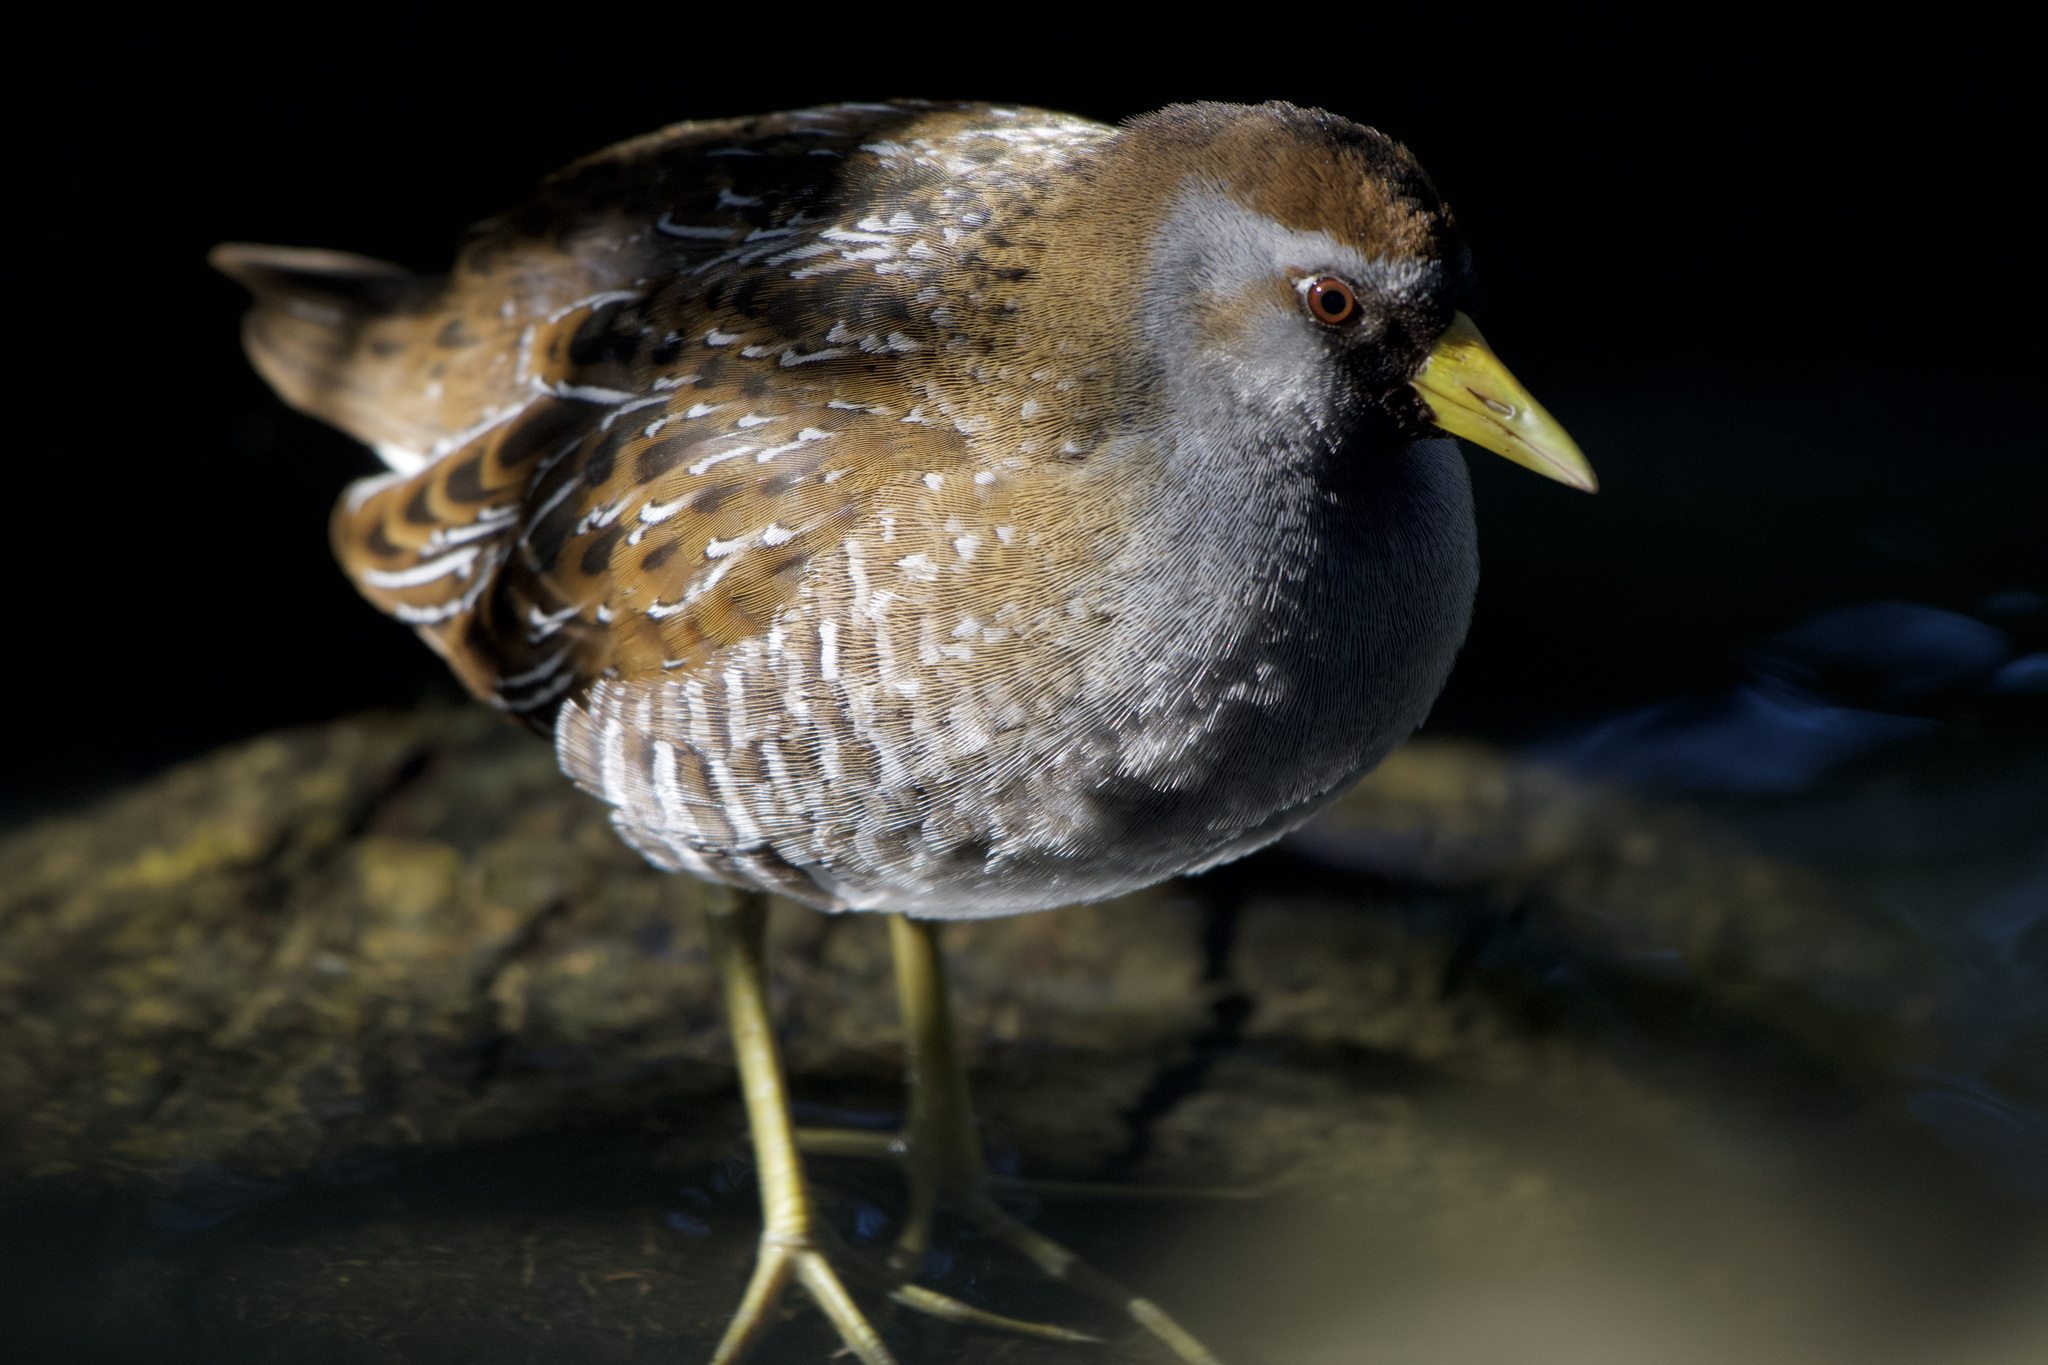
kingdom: Animalia
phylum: Chordata
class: Aves
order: Gruiformes
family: Rallidae
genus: Porzana
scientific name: Porzana carolina
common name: Sora
